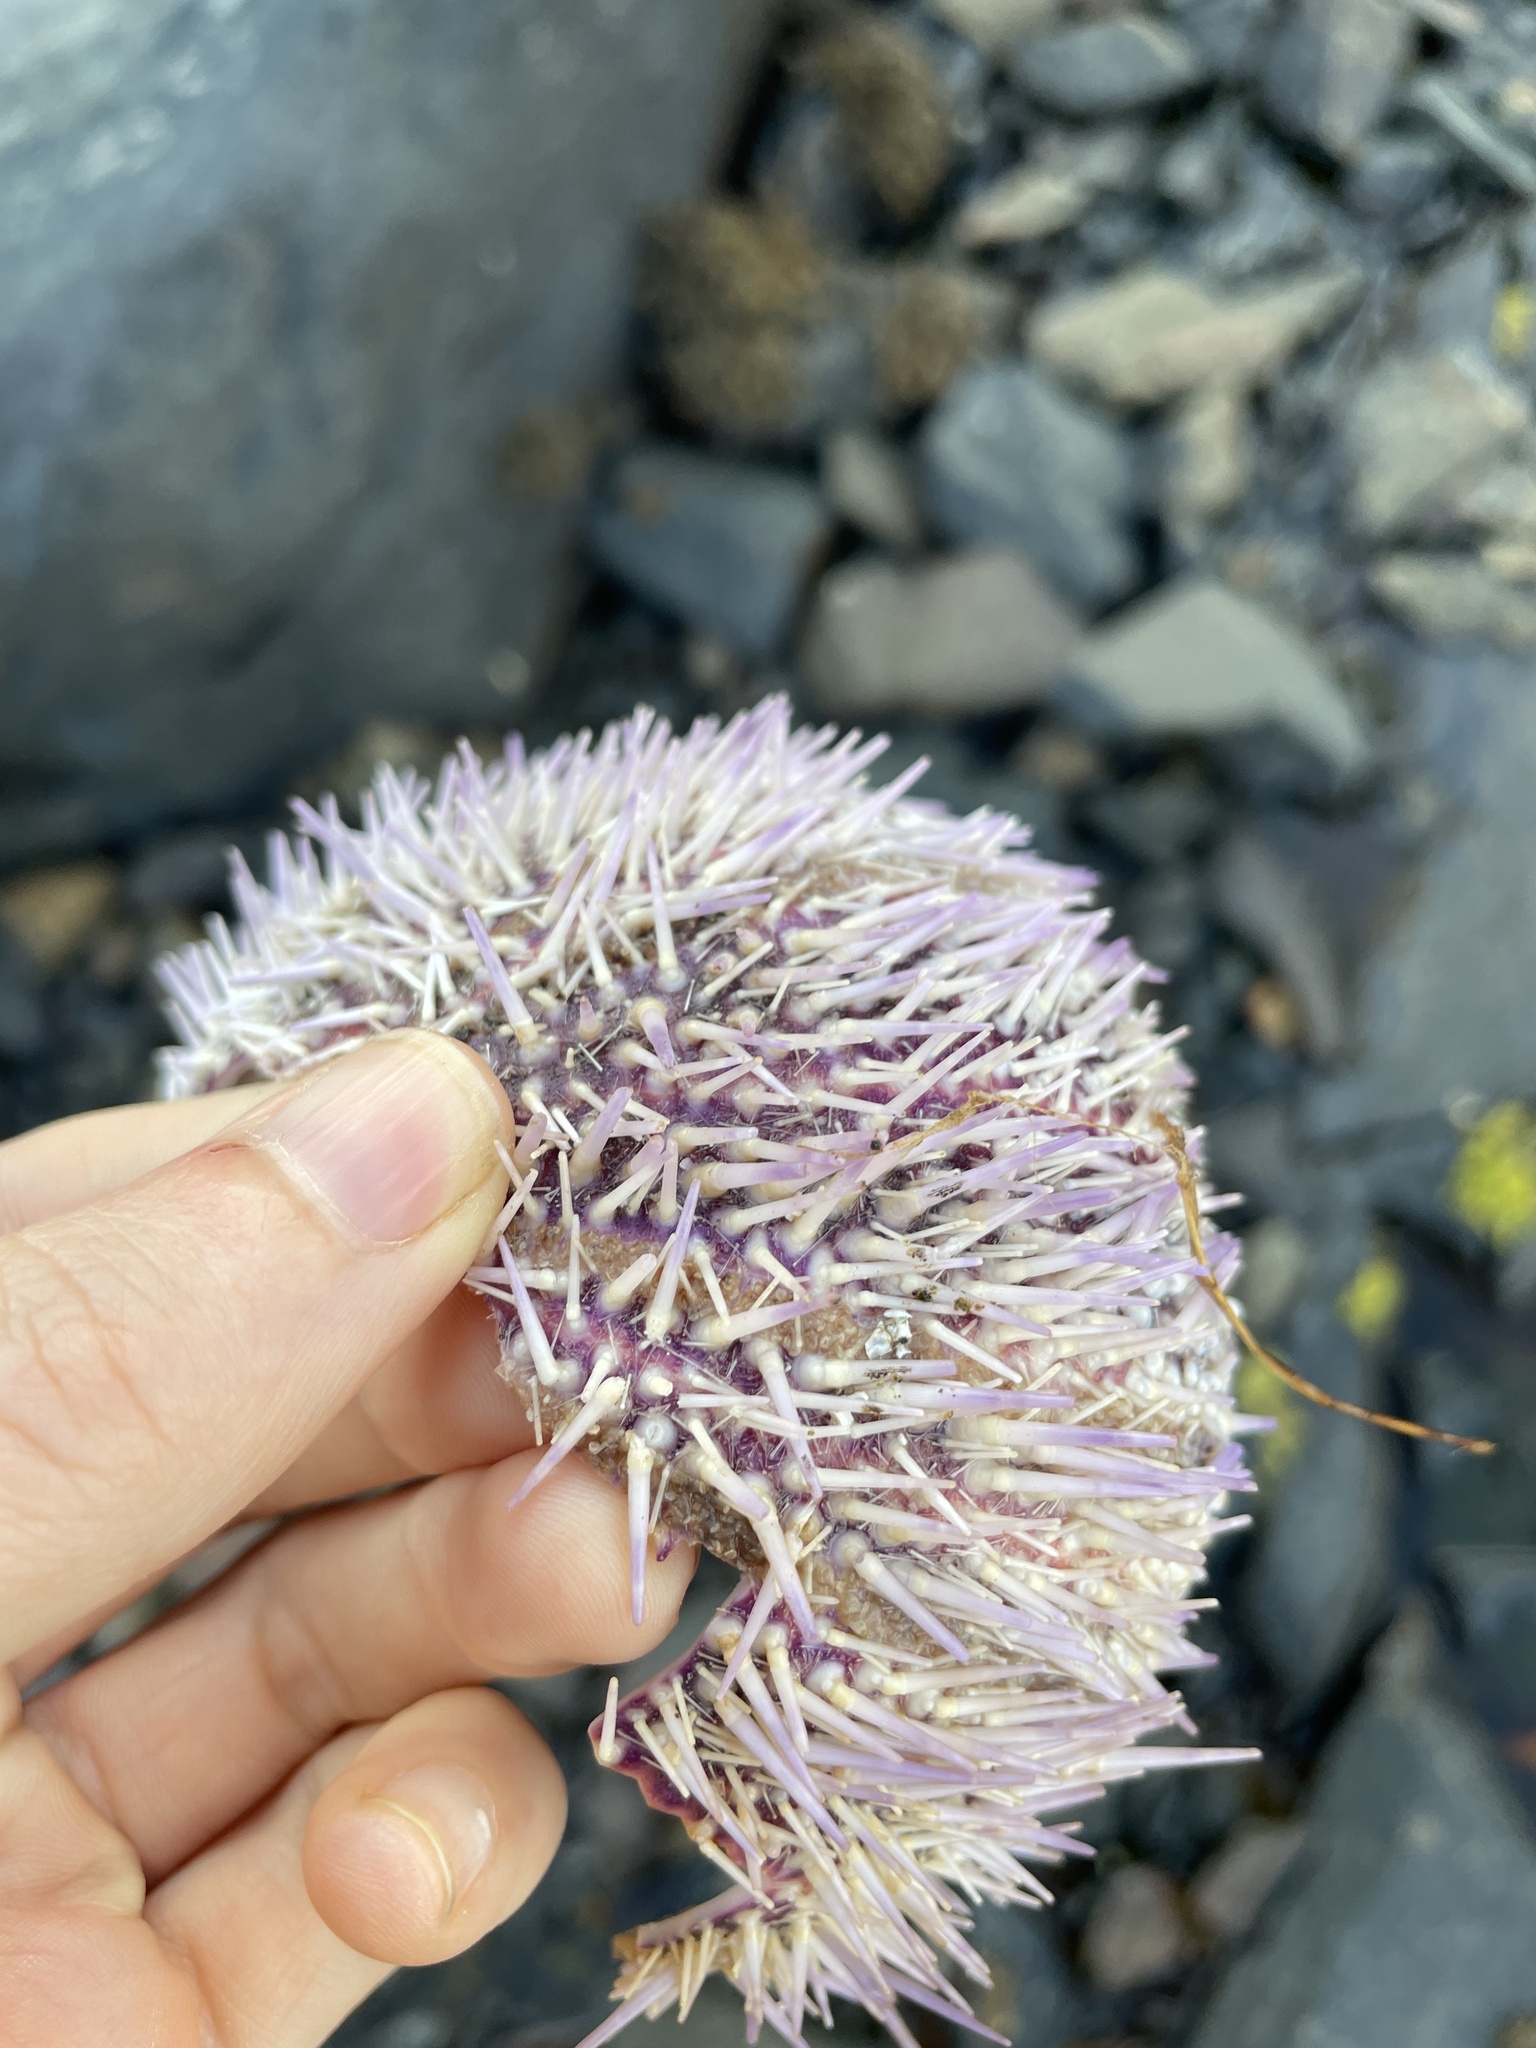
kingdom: Animalia
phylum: Echinodermata
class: Echinoidea
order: Camarodonta
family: Echinidae
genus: Echinus
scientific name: Echinus esculentus
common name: Edible sea urchin
